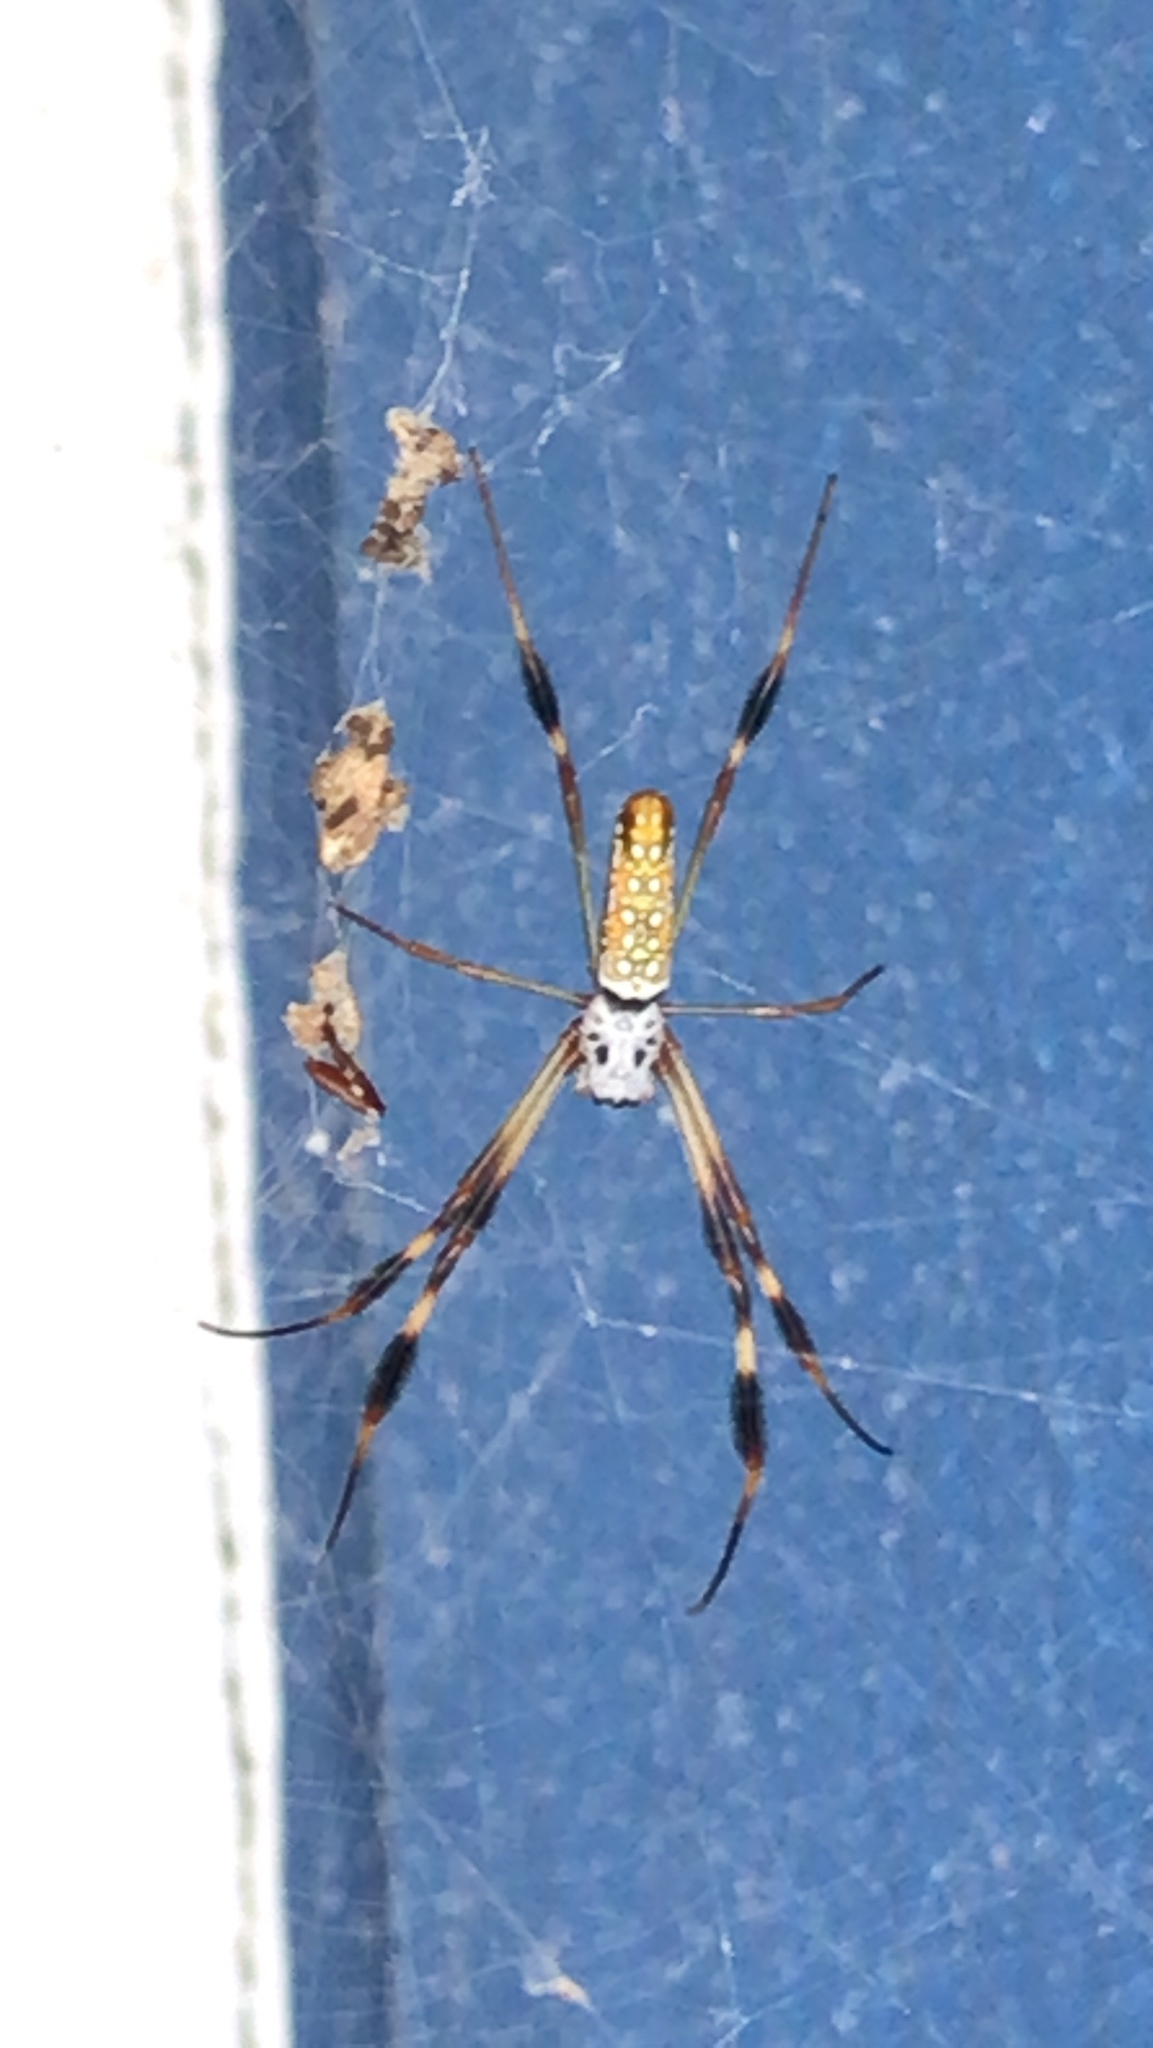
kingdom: Animalia
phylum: Arthropoda
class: Arachnida
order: Araneae
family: Araneidae
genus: Trichonephila
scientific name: Trichonephila clavipes
